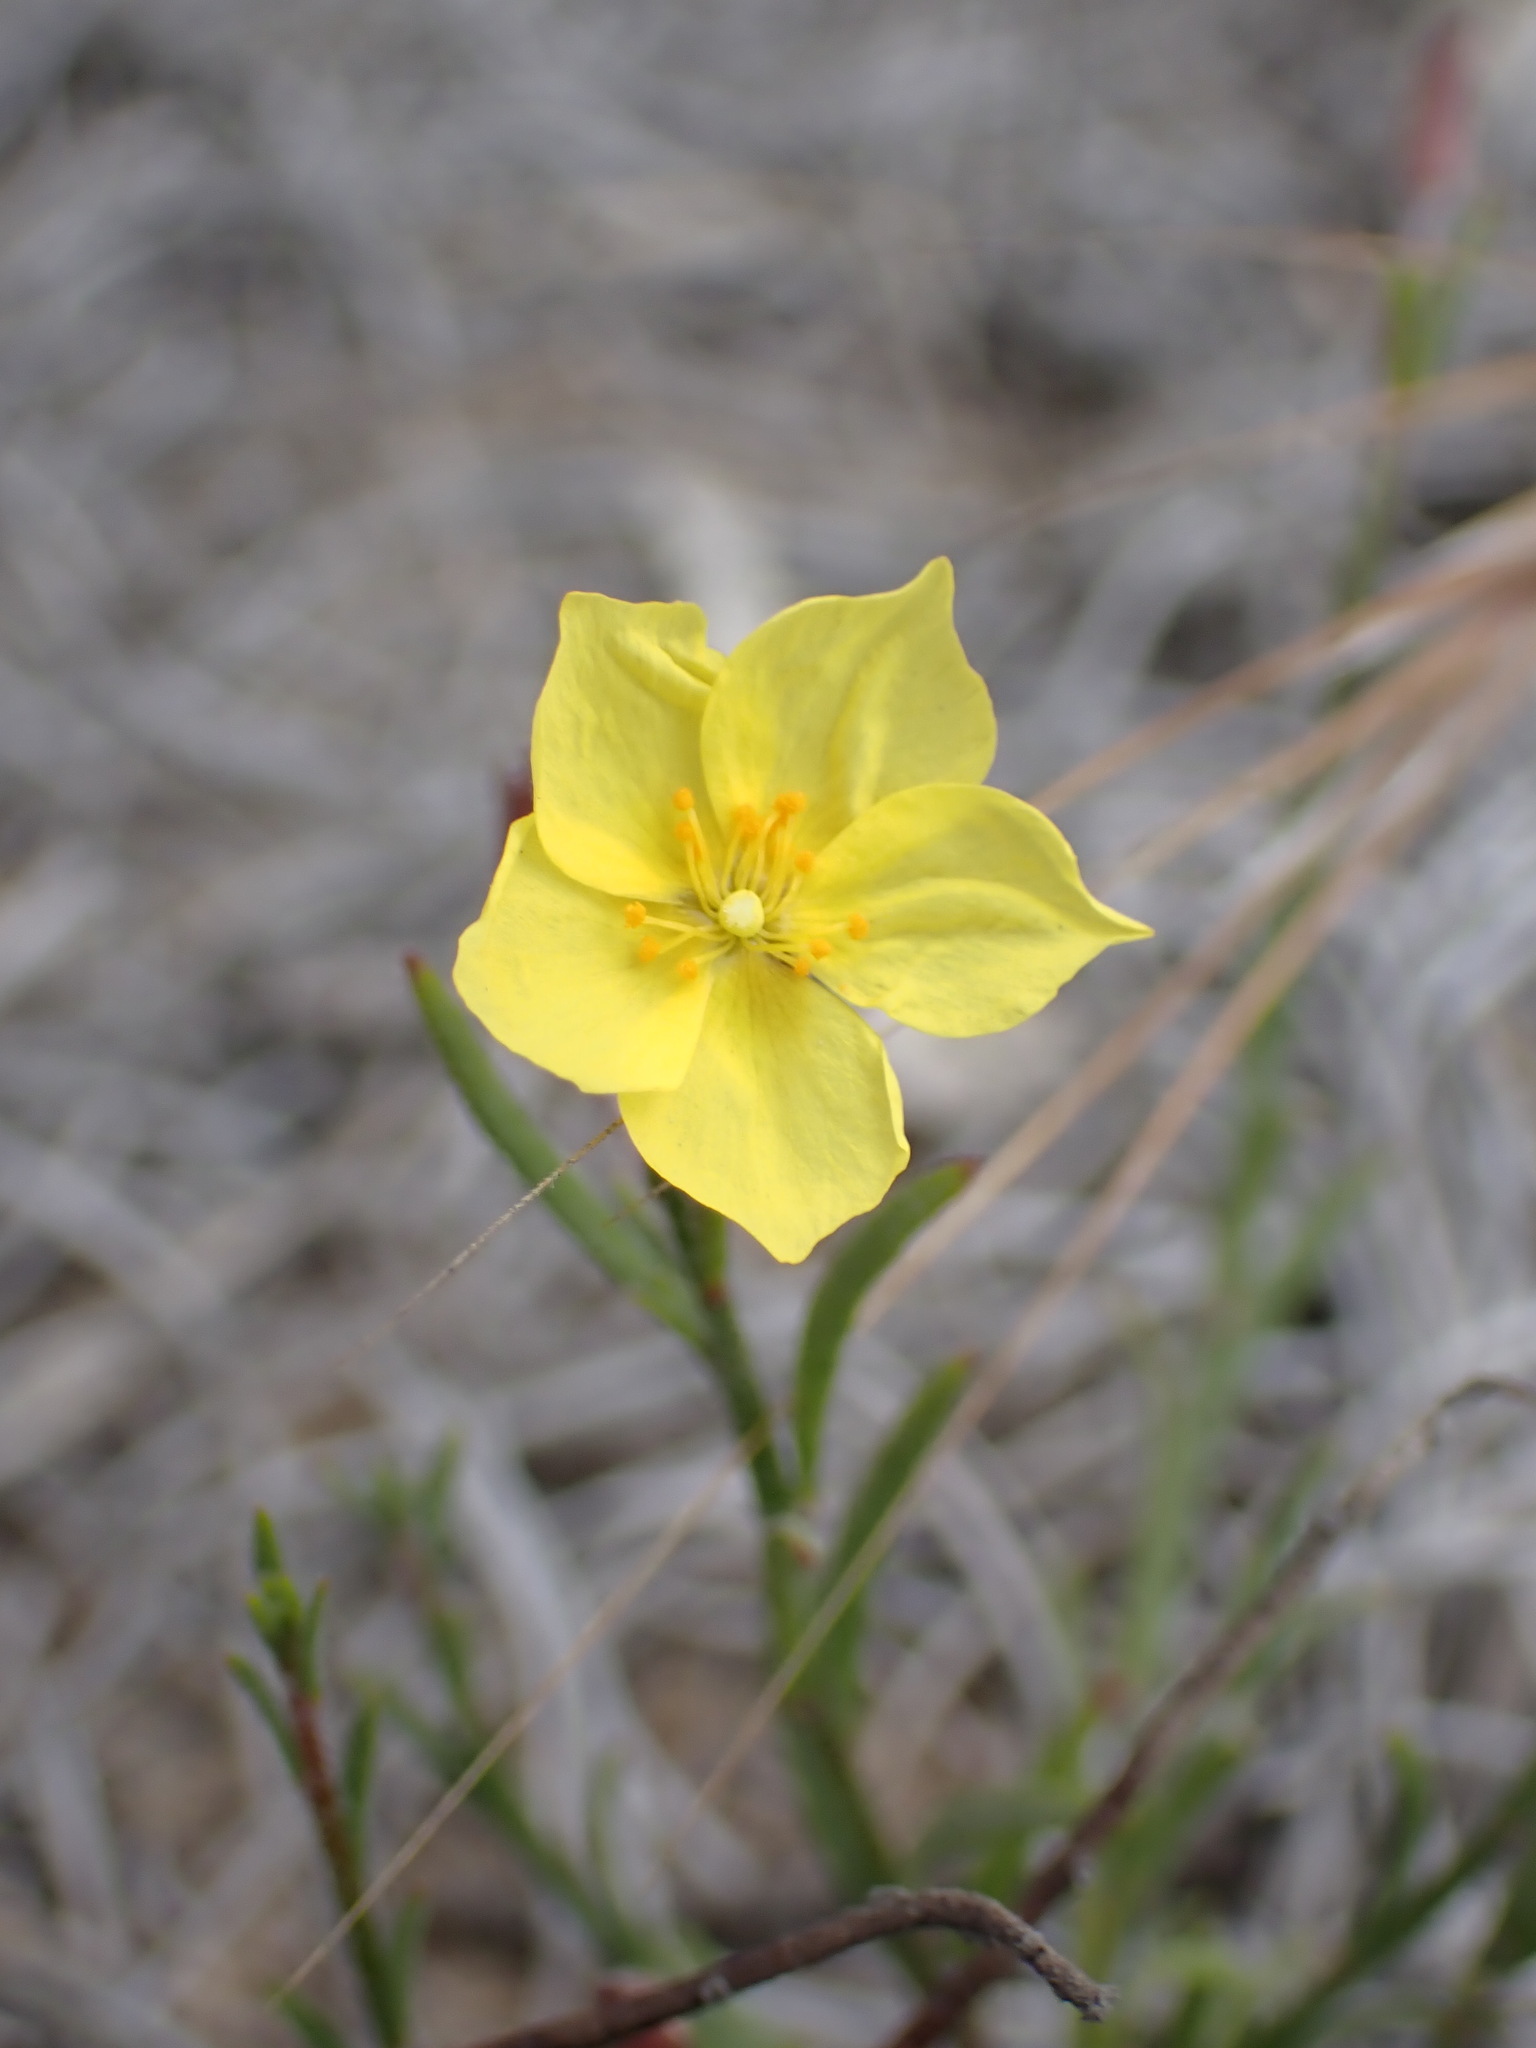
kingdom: Plantae
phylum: Tracheophyta
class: Magnoliopsida
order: Malvales
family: Cistaceae
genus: Crocanthemum
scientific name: Crocanthemum scoparium
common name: Broom-rose
